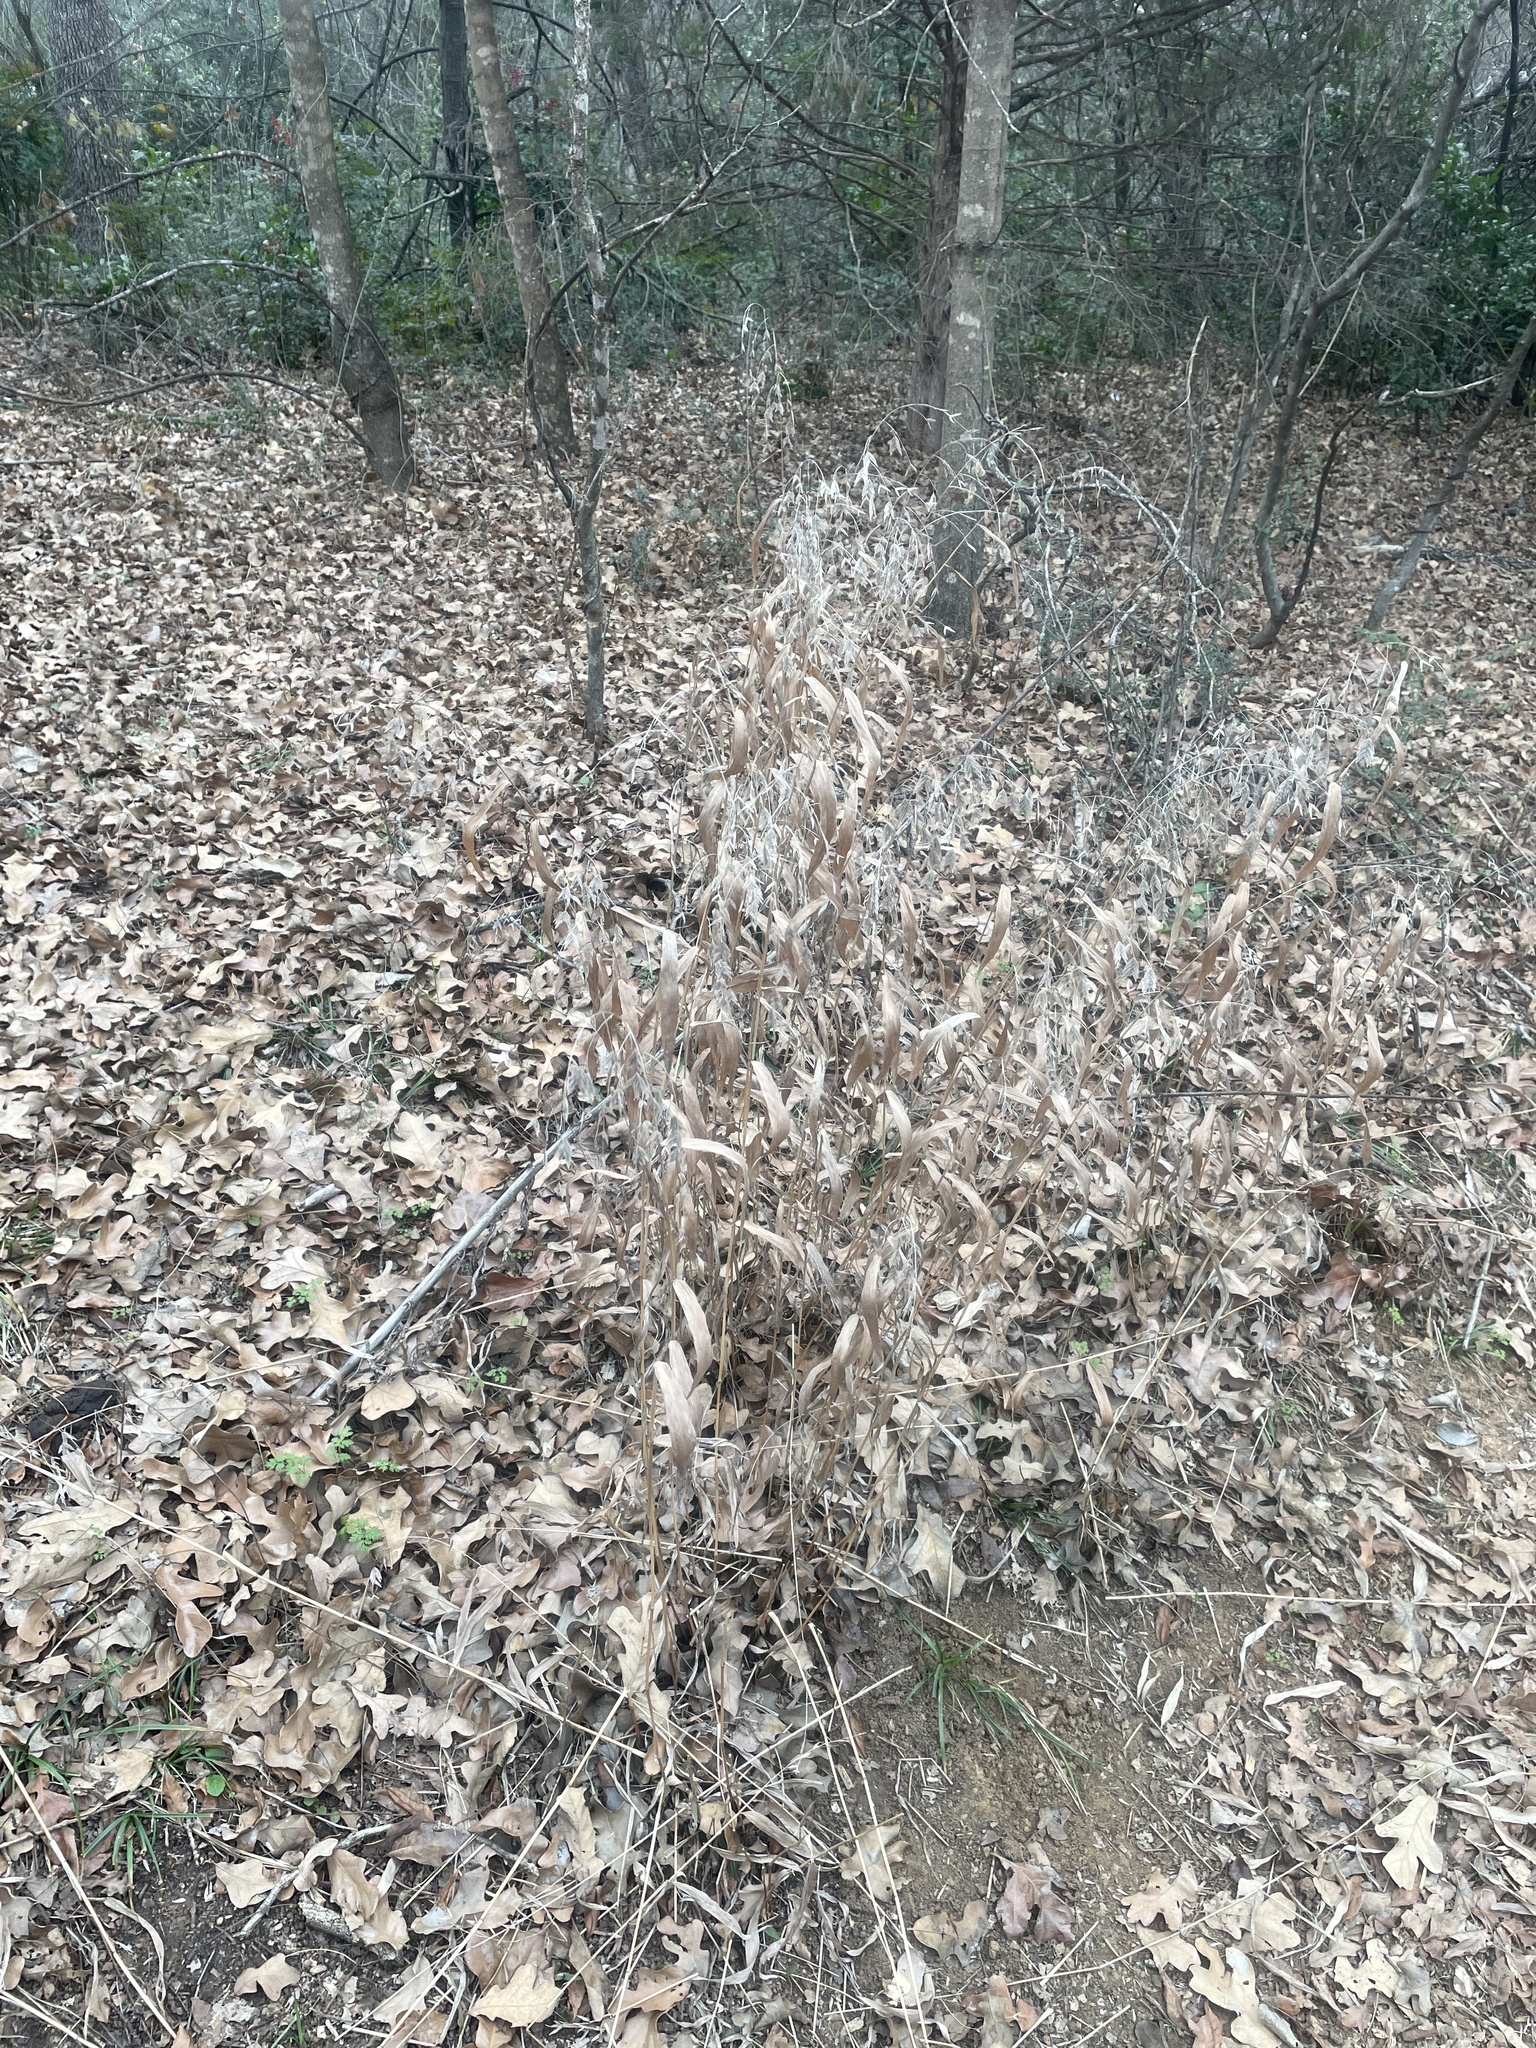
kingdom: Plantae
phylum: Tracheophyta
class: Liliopsida
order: Poales
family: Poaceae
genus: Chasmanthium
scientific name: Chasmanthium latifolium
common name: Broad-leaved chasmanthium
